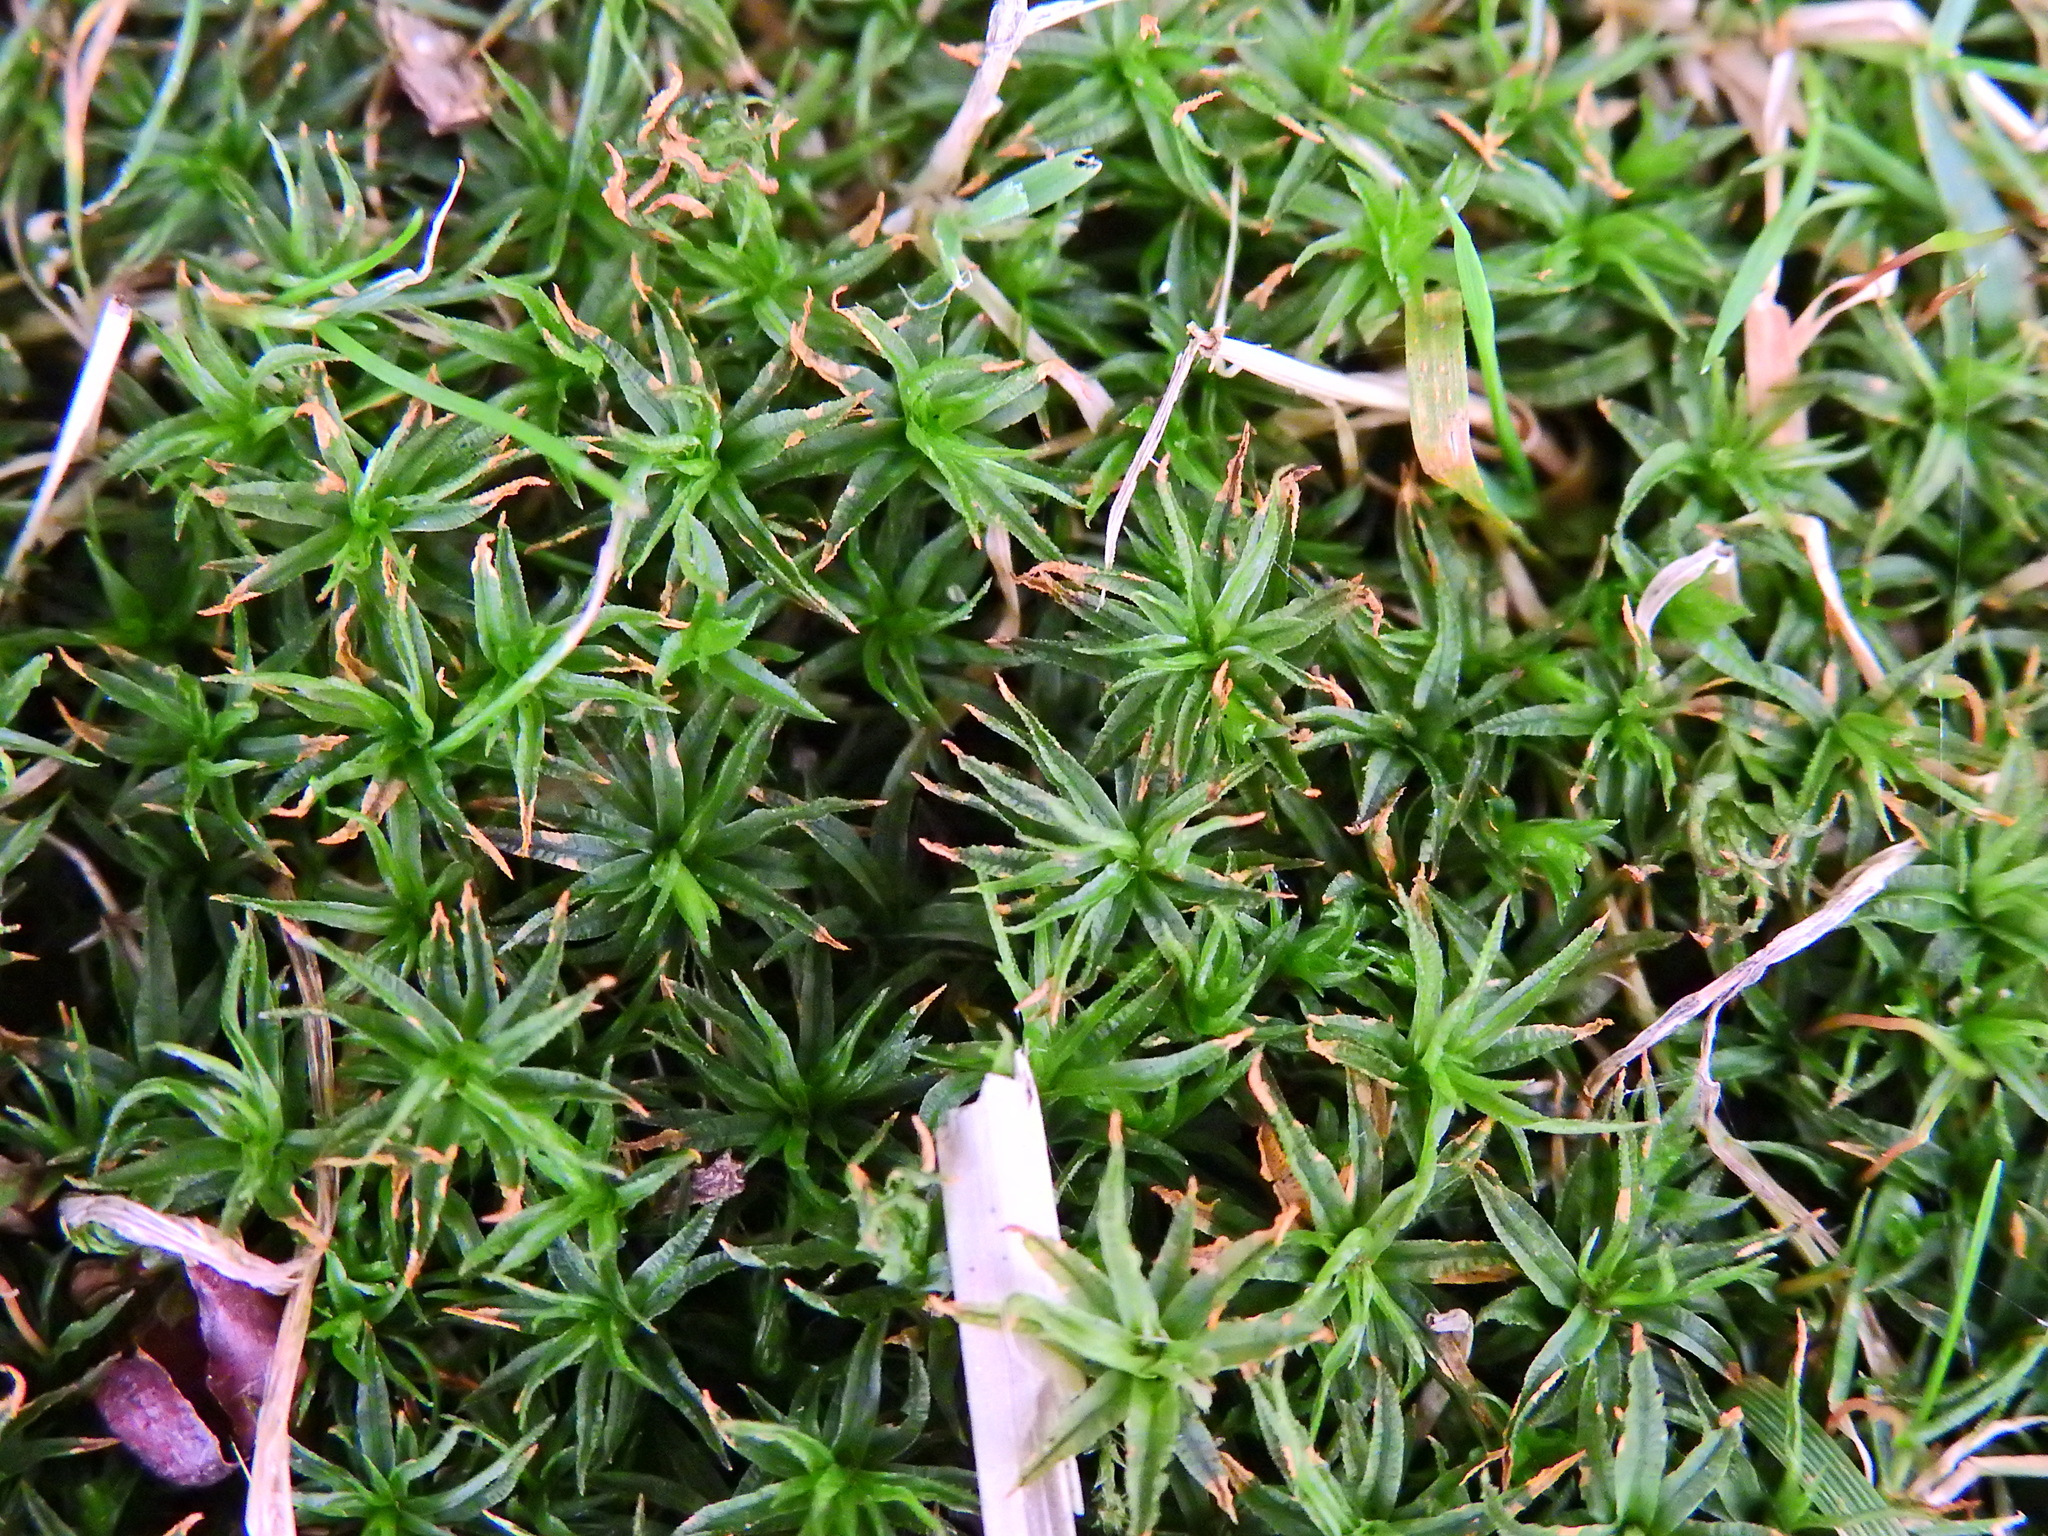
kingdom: Plantae
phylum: Bryophyta
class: Polytrichopsida
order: Polytrichales
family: Polytrichaceae
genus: Atrichum
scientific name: Atrichum undulatum
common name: Common smoothcap
